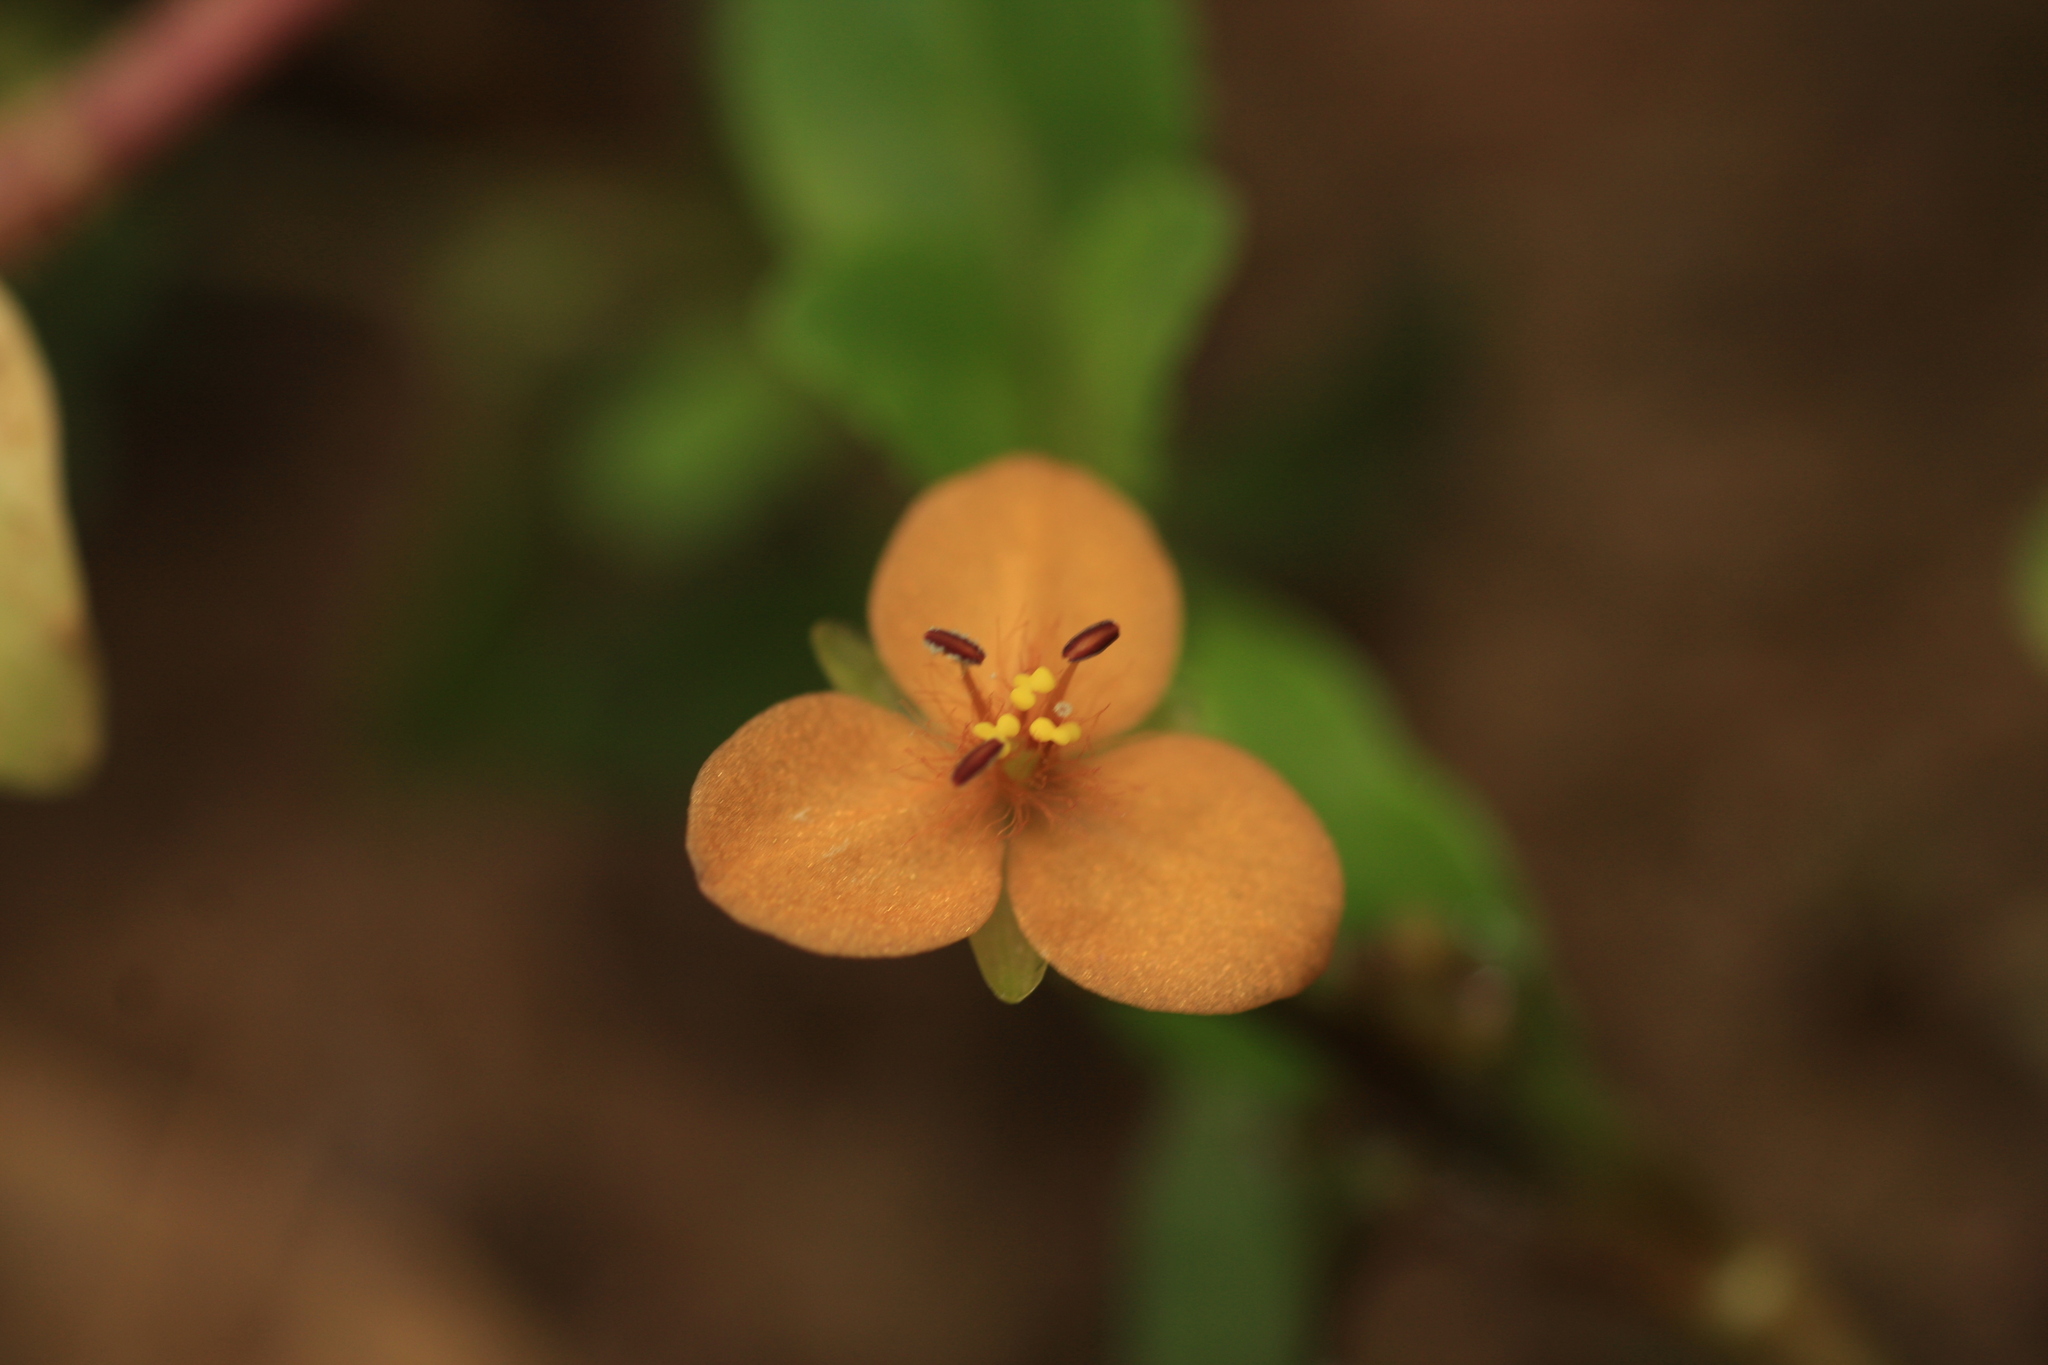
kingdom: Plantae
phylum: Tracheophyta
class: Liliopsida
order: Commelinales
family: Commelinaceae
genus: Murdannia
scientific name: Murdannia versicolor
